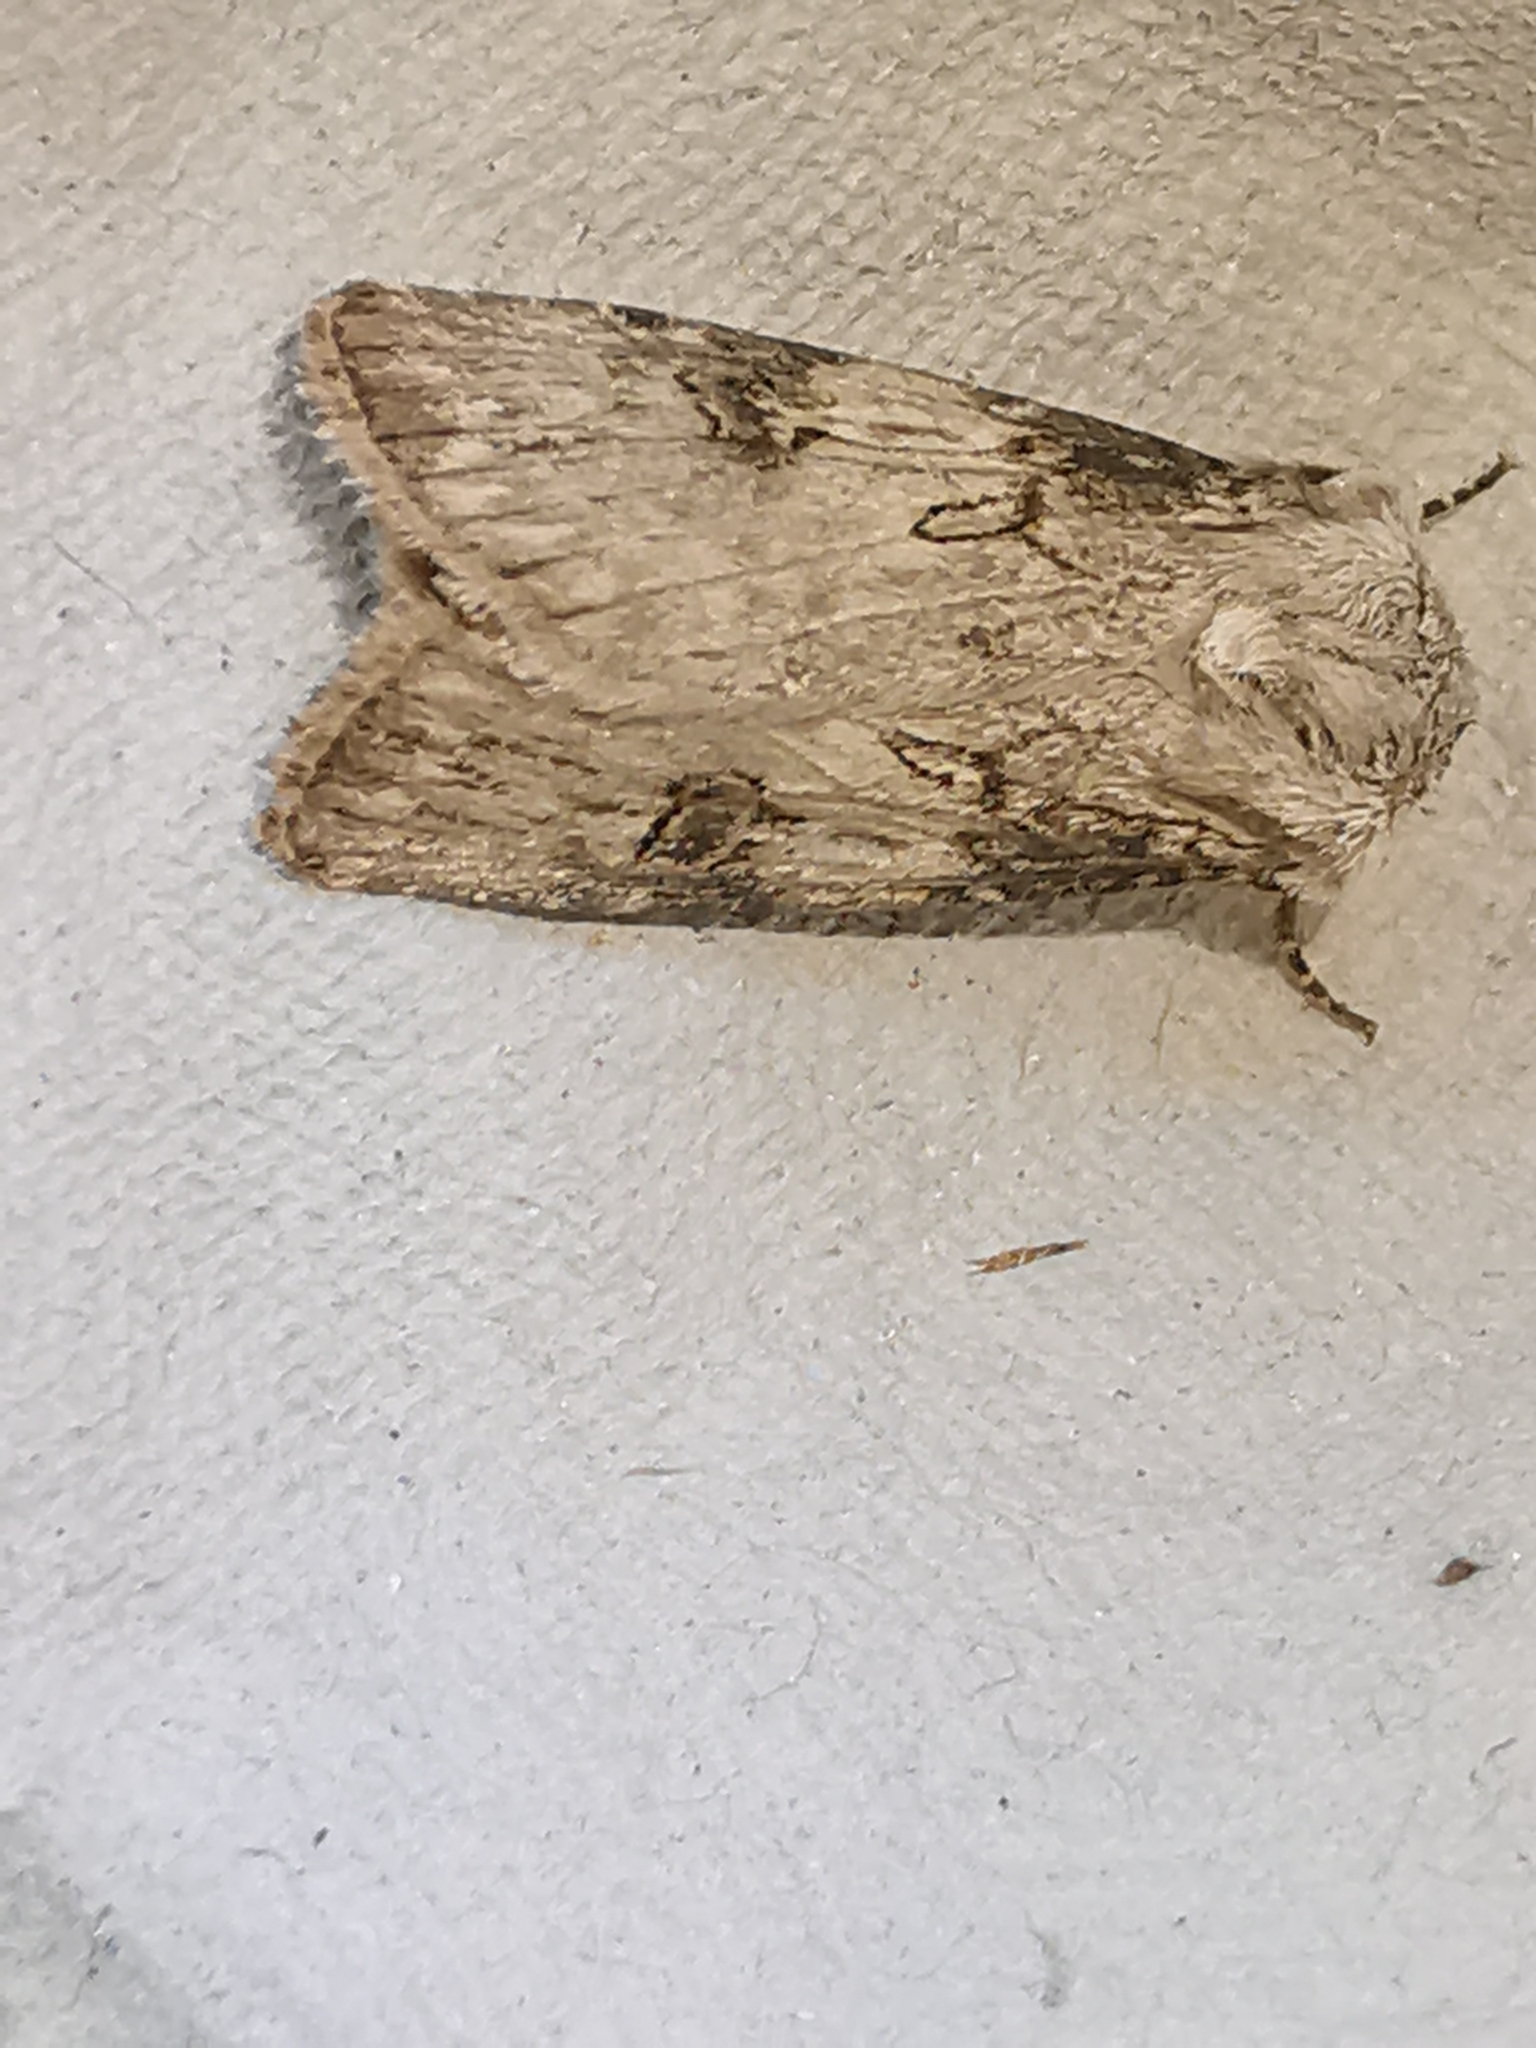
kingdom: Animalia
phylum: Arthropoda
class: Insecta
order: Lepidoptera
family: Noctuidae
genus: Agrotis
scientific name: Agrotis puta
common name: Shuttle-shaped dart
